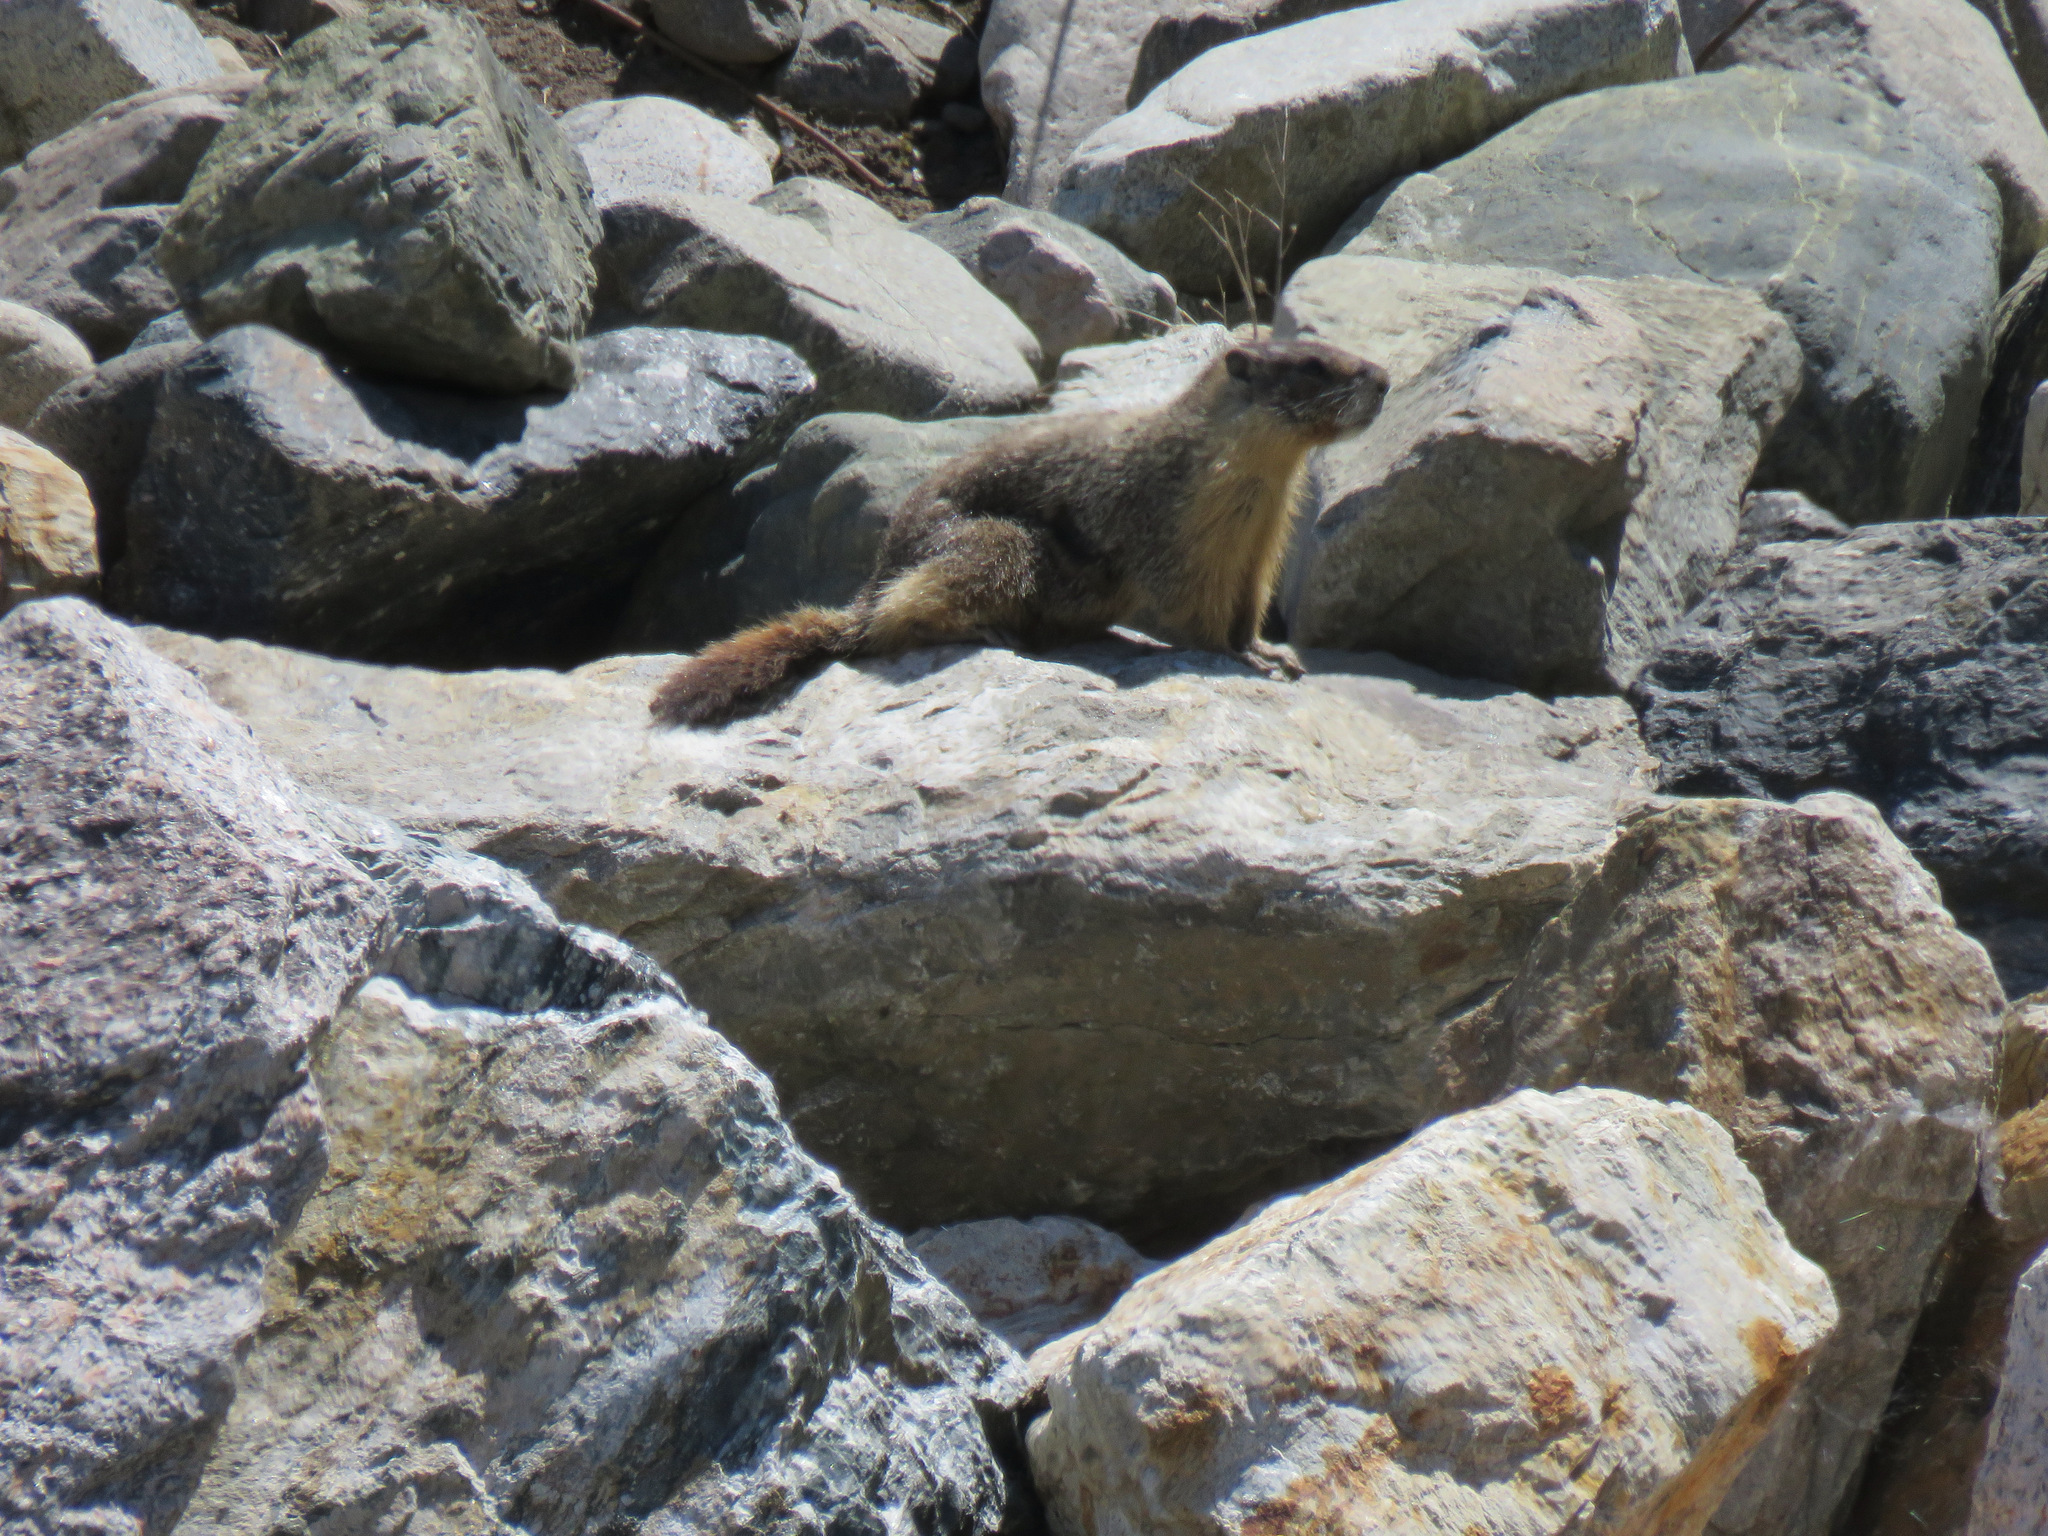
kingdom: Animalia
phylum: Chordata
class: Mammalia
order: Rodentia
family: Sciuridae
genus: Marmota
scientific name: Marmota flaviventris
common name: Yellow-bellied marmot
